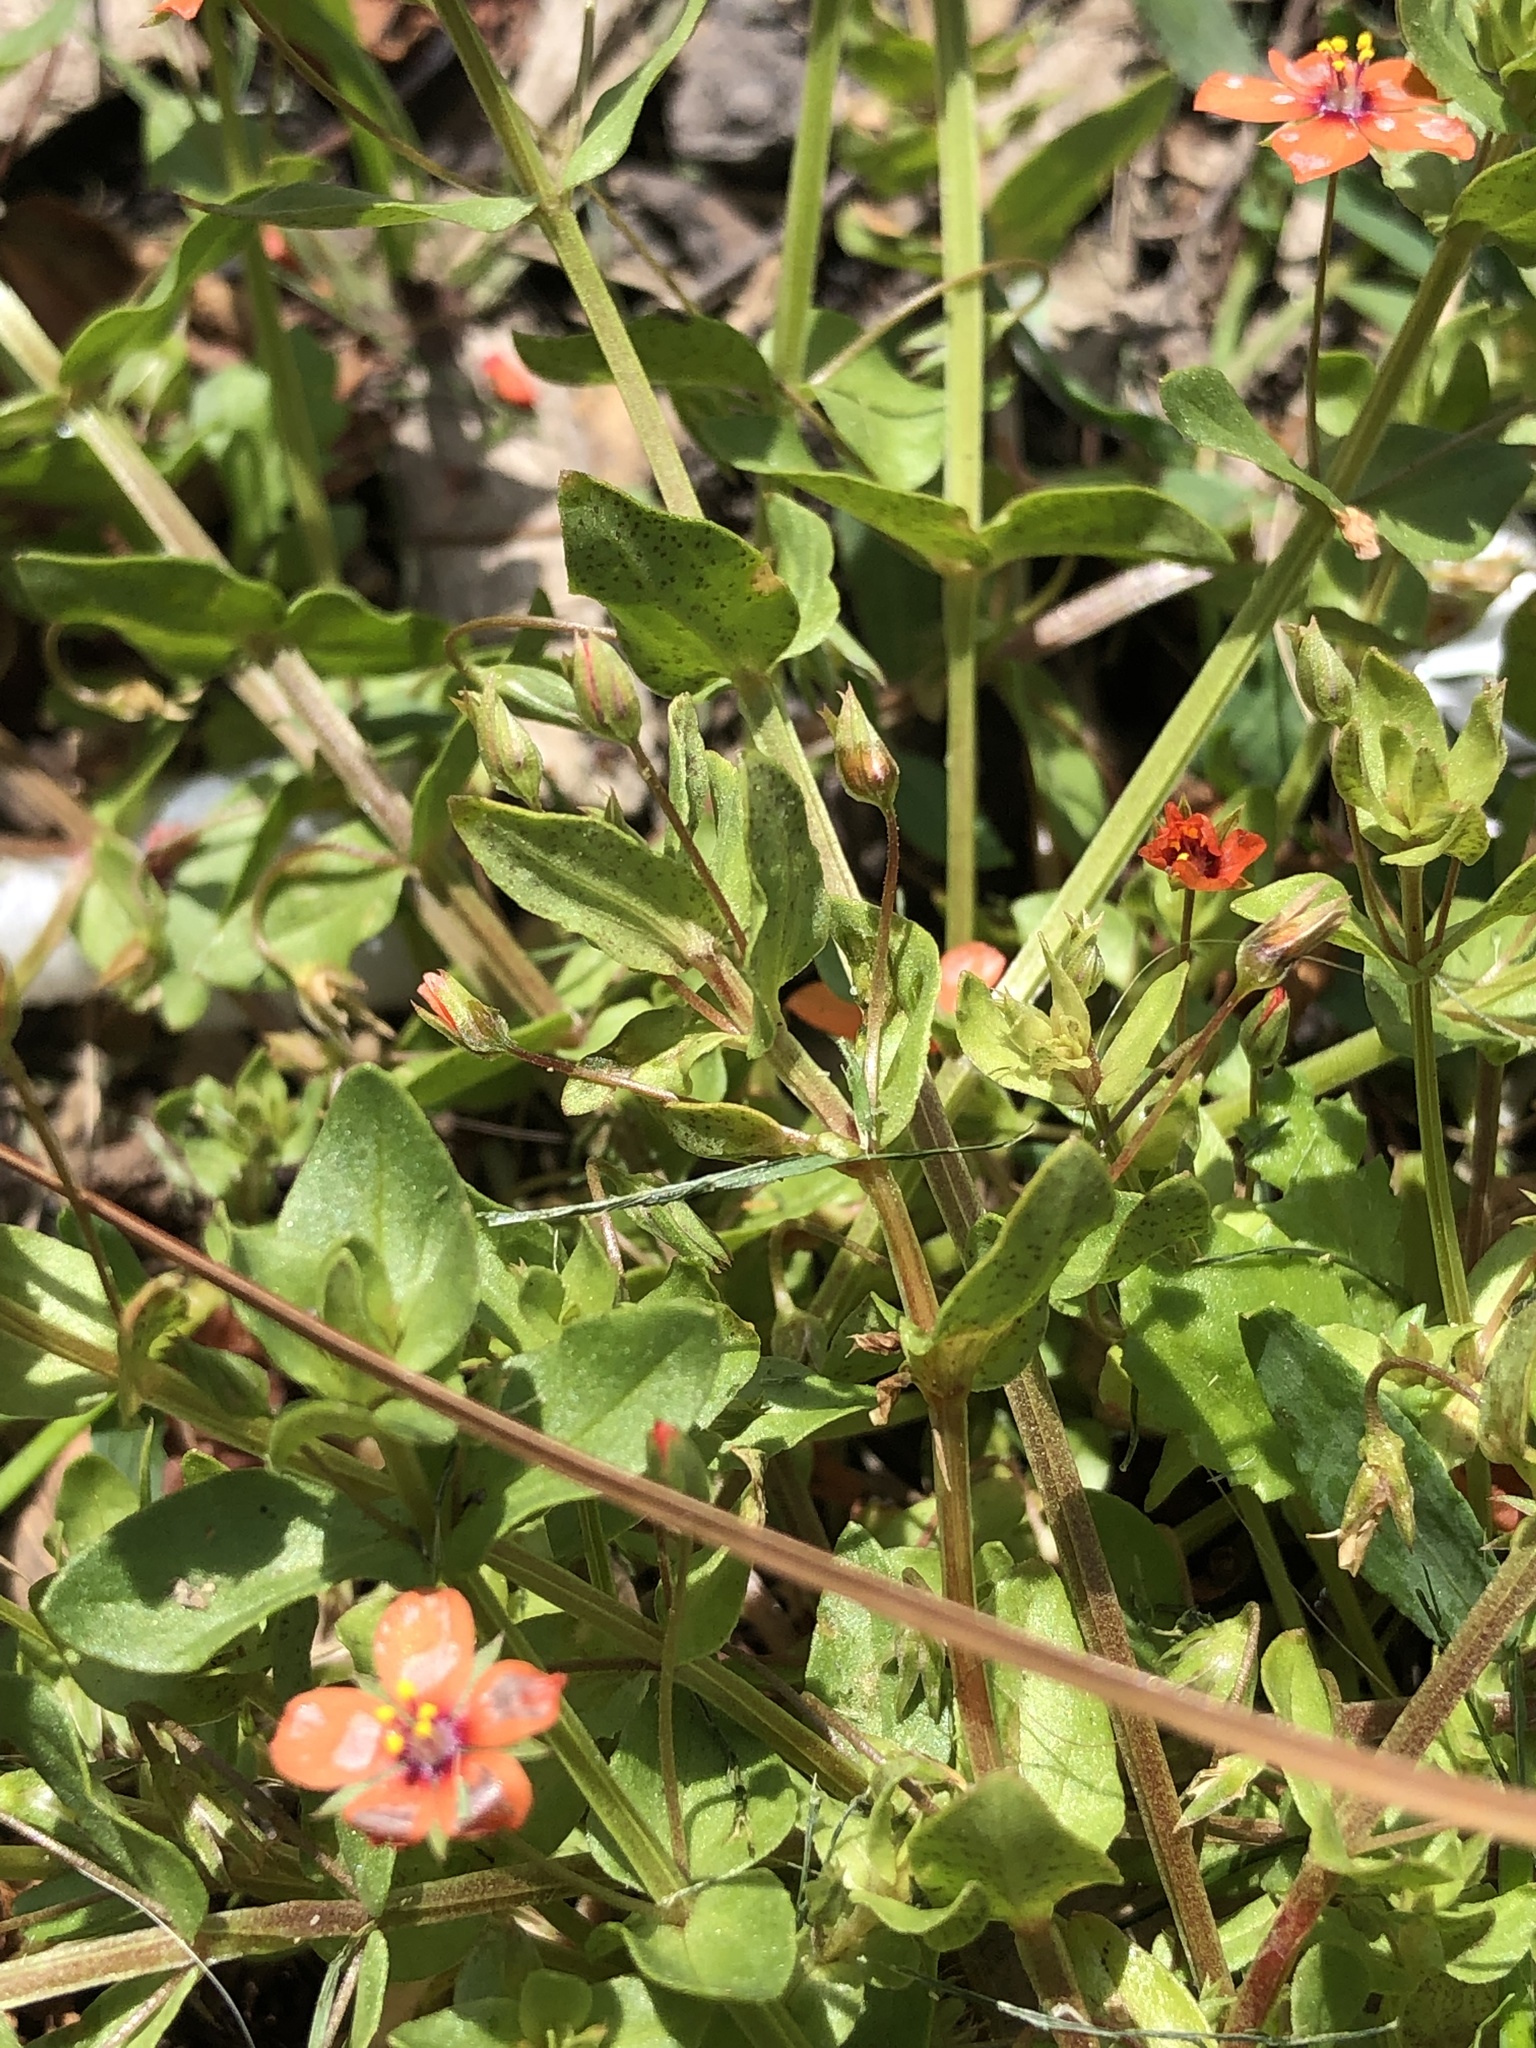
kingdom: Plantae
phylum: Tracheophyta
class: Magnoliopsida
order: Ericales
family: Primulaceae
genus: Lysimachia
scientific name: Lysimachia arvensis
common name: Scarlet pimpernel
